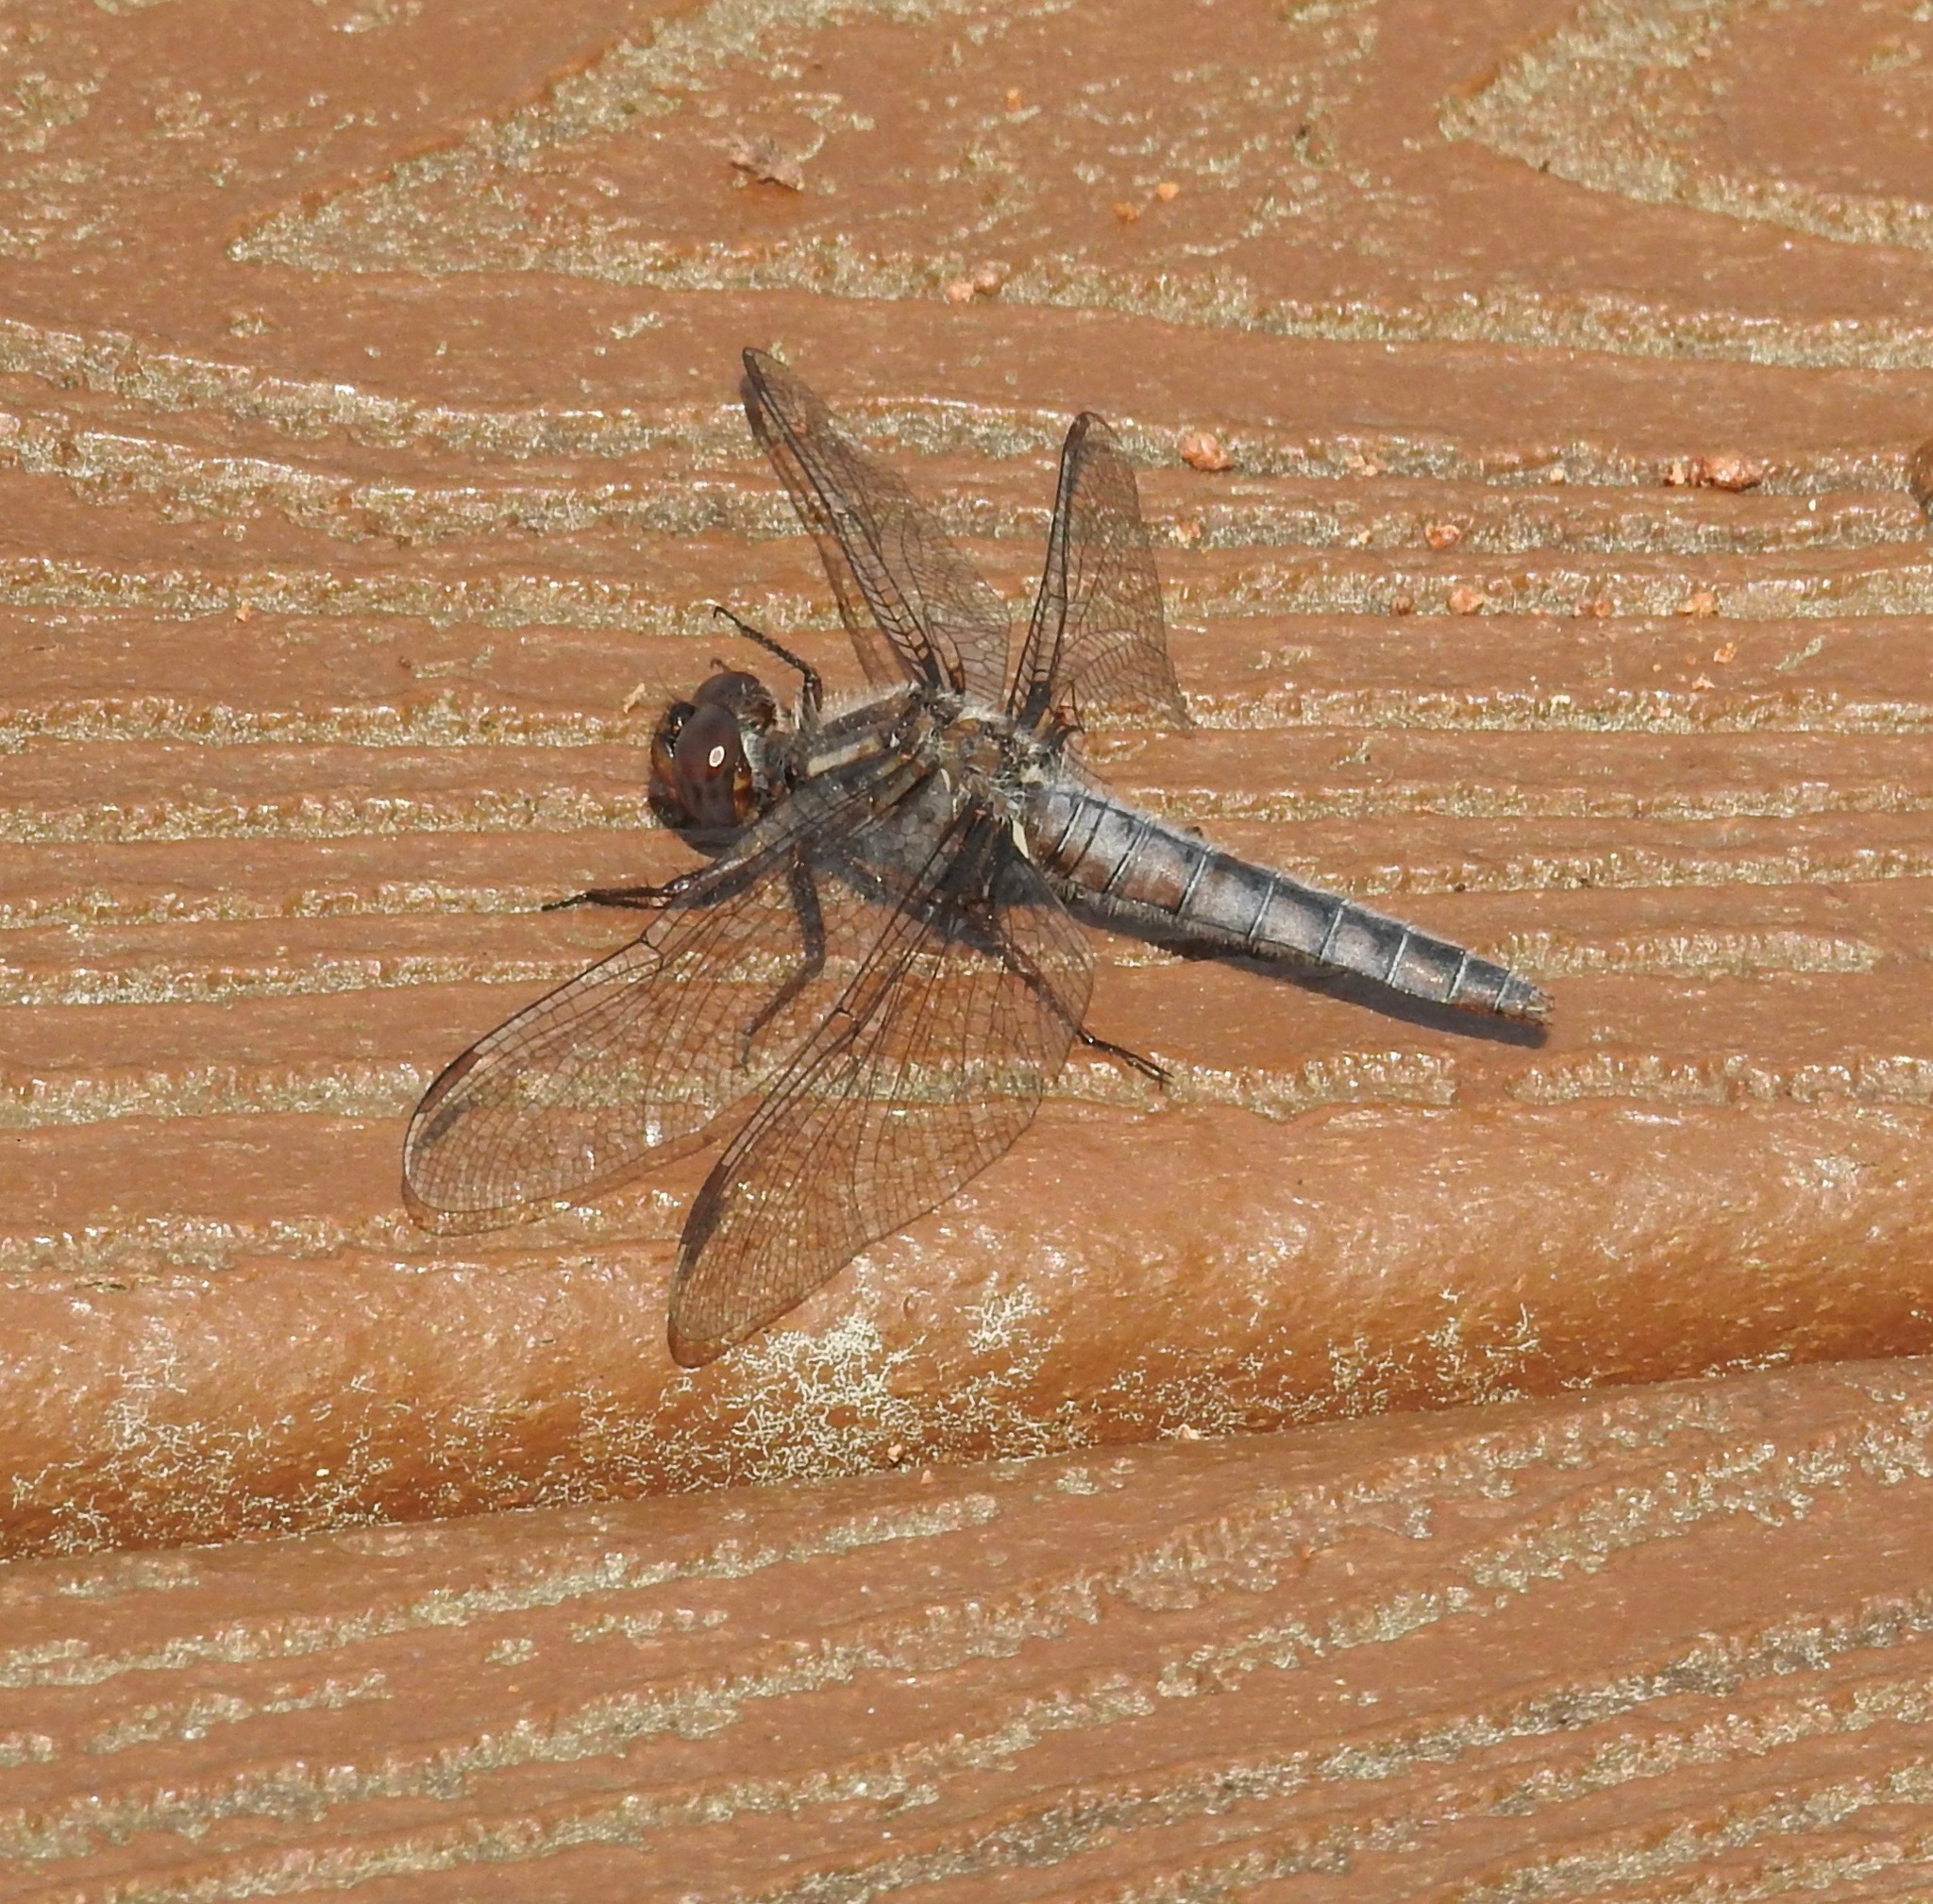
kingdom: Animalia
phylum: Arthropoda
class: Insecta
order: Odonata
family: Libellulidae
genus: Ladona
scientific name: Ladona deplanata
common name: Blue corporal
